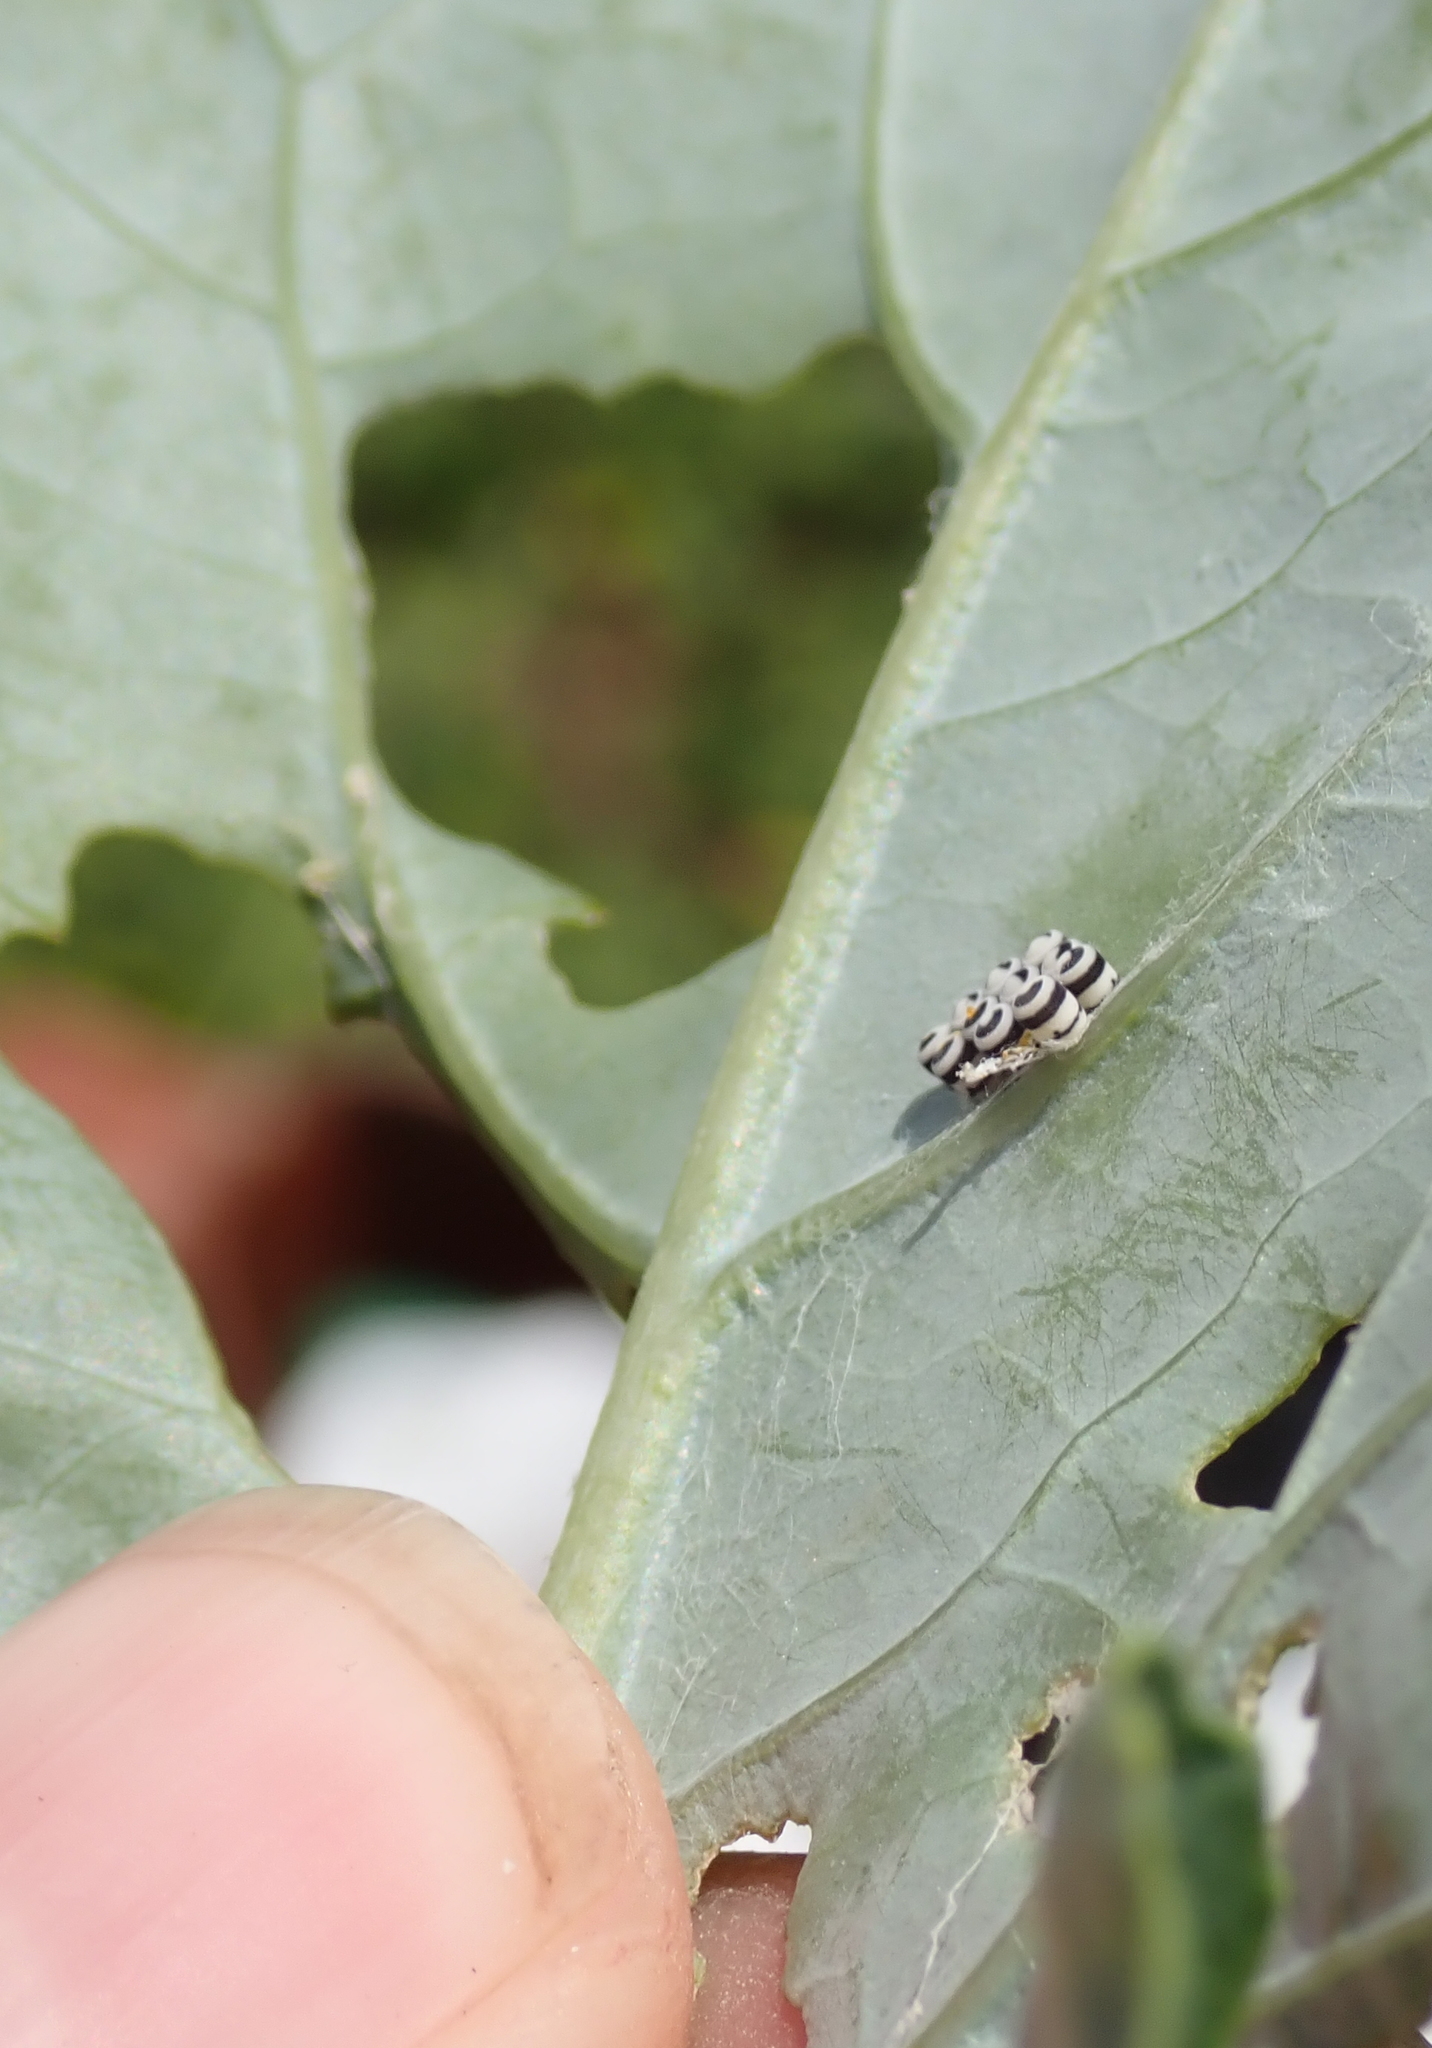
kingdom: Animalia
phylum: Arthropoda
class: Insecta
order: Hemiptera
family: Pentatomidae
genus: Murgantia
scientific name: Murgantia histrionica
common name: Harlequin bug
